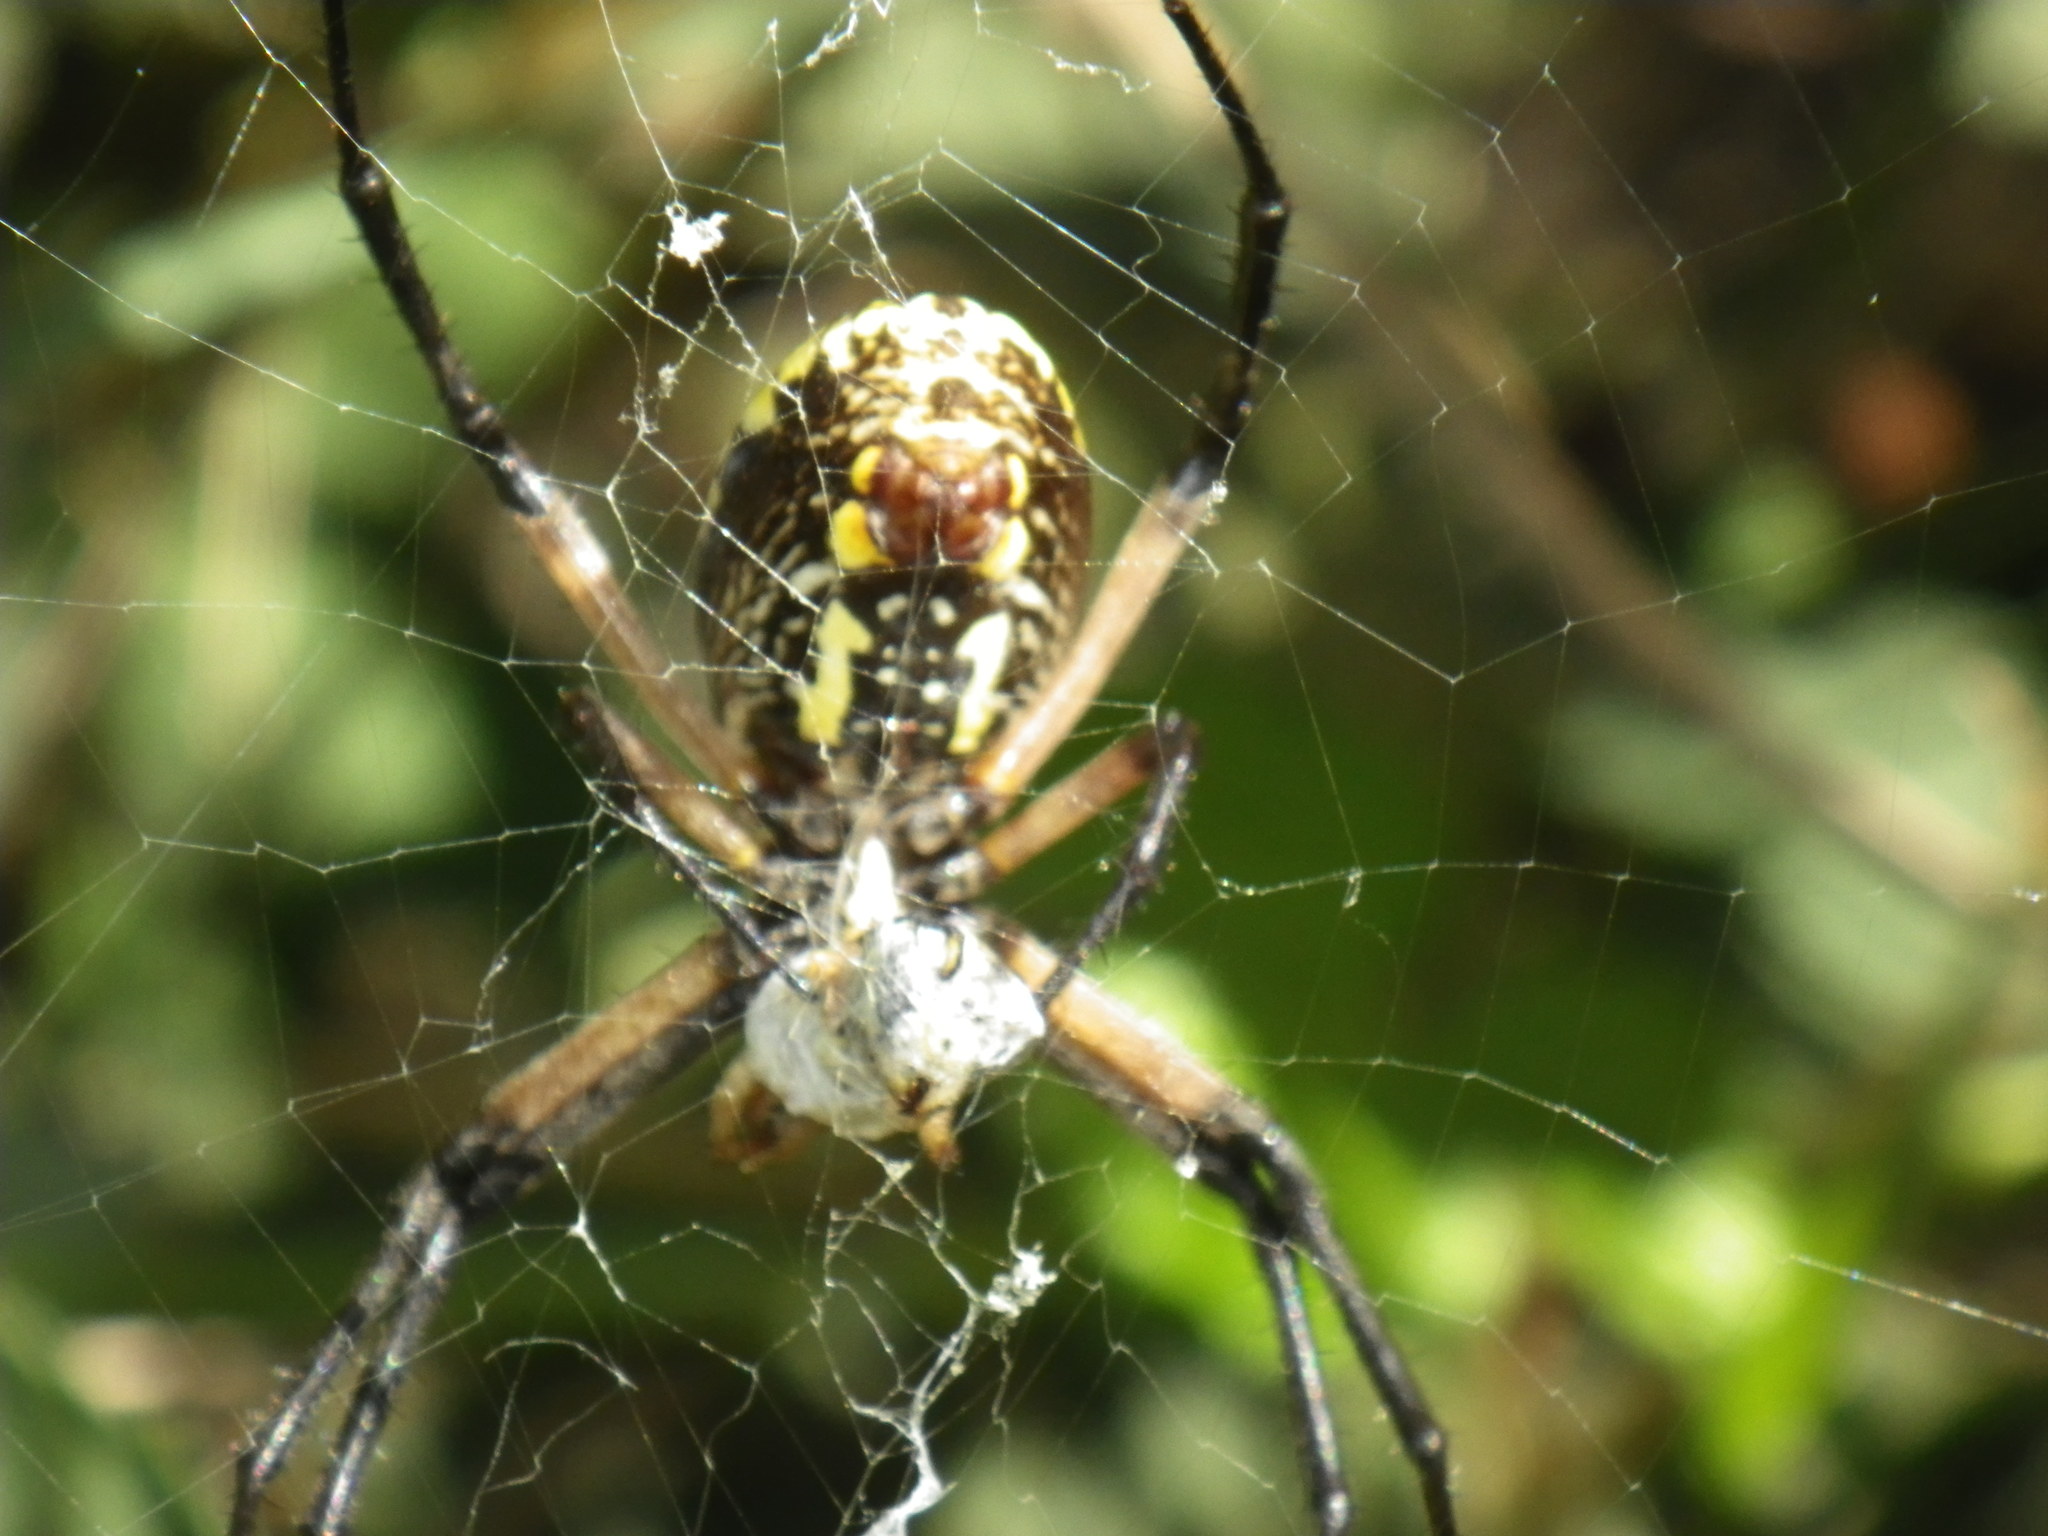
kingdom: Animalia
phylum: Arthropoda
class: Arachnida
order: Araneae
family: Araneidae
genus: Argiope
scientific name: Argiope aurantia
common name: Orb weavers
